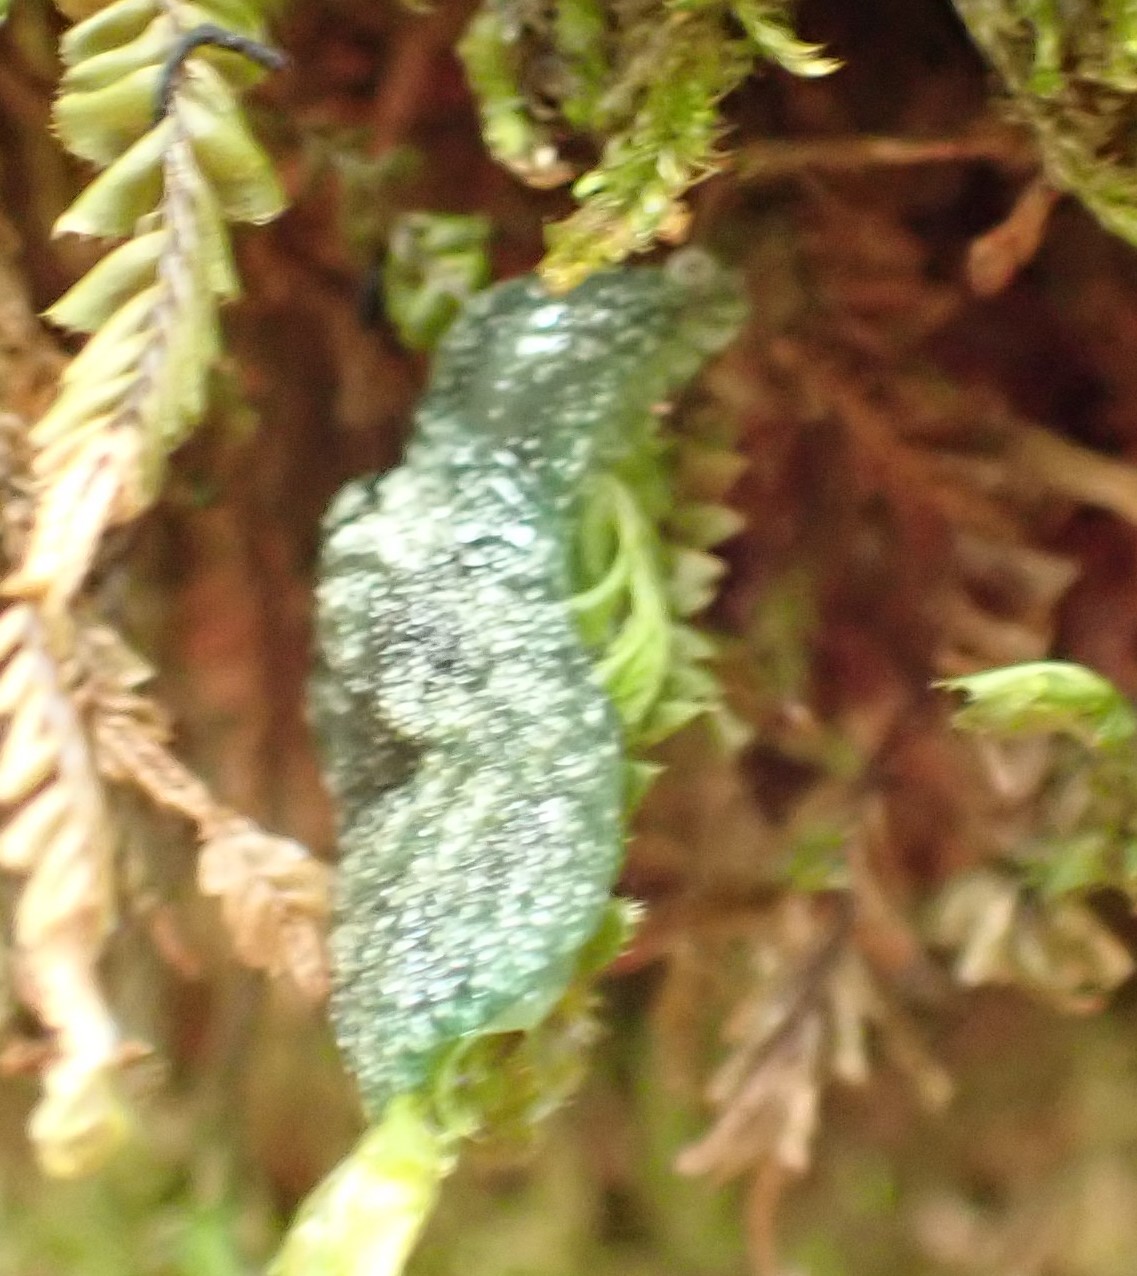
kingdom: Animalia
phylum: Mollusca
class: Gastropoda
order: Stylommatophora
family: Cystopeltidae
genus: Cystopelta
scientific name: Cystopelta bicolor
